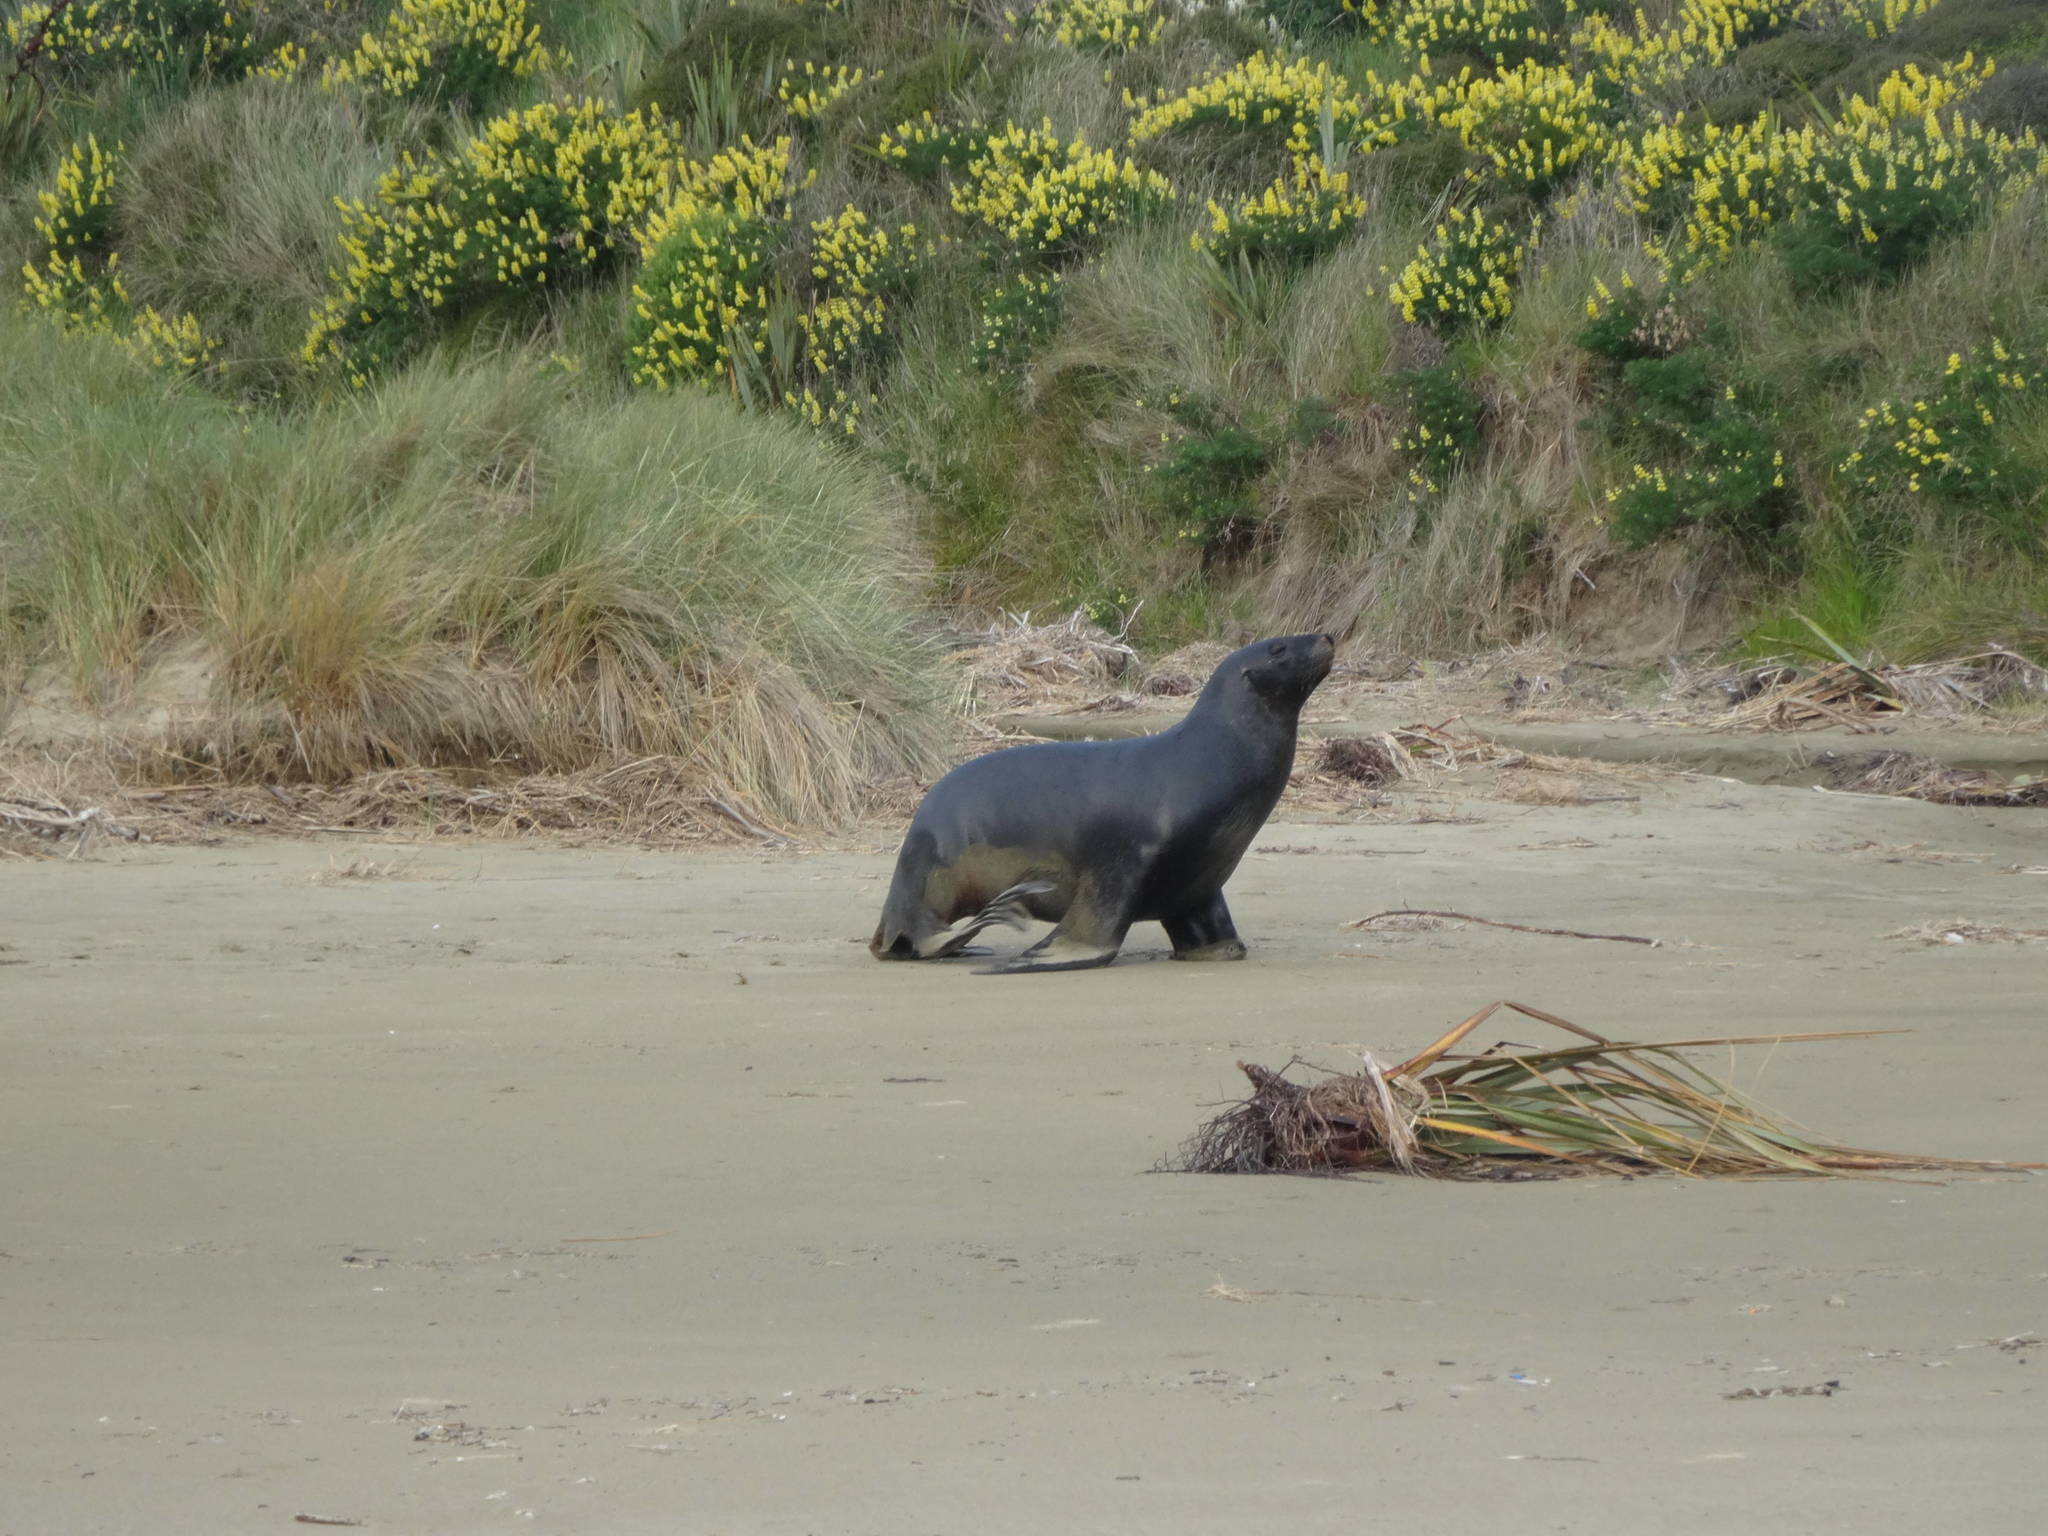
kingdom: Animalia
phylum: Chordata
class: Mammalia
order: Carnivora
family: Otariidae
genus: Phocarctos
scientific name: Phocarctos hookeri
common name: New zealand sea lion
